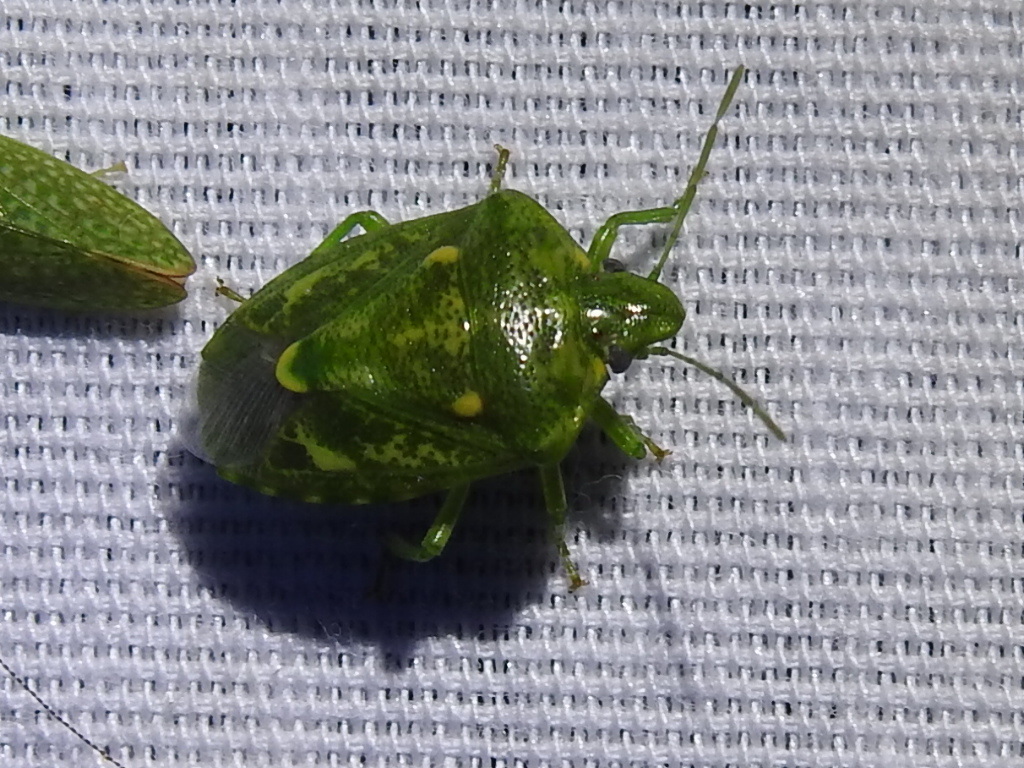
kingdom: Animalia
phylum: Arthropoda
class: Insecta
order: Hemiptera
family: Pentatomidae
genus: Banasa
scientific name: Banasa euchlora
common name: Cedar berry bug
